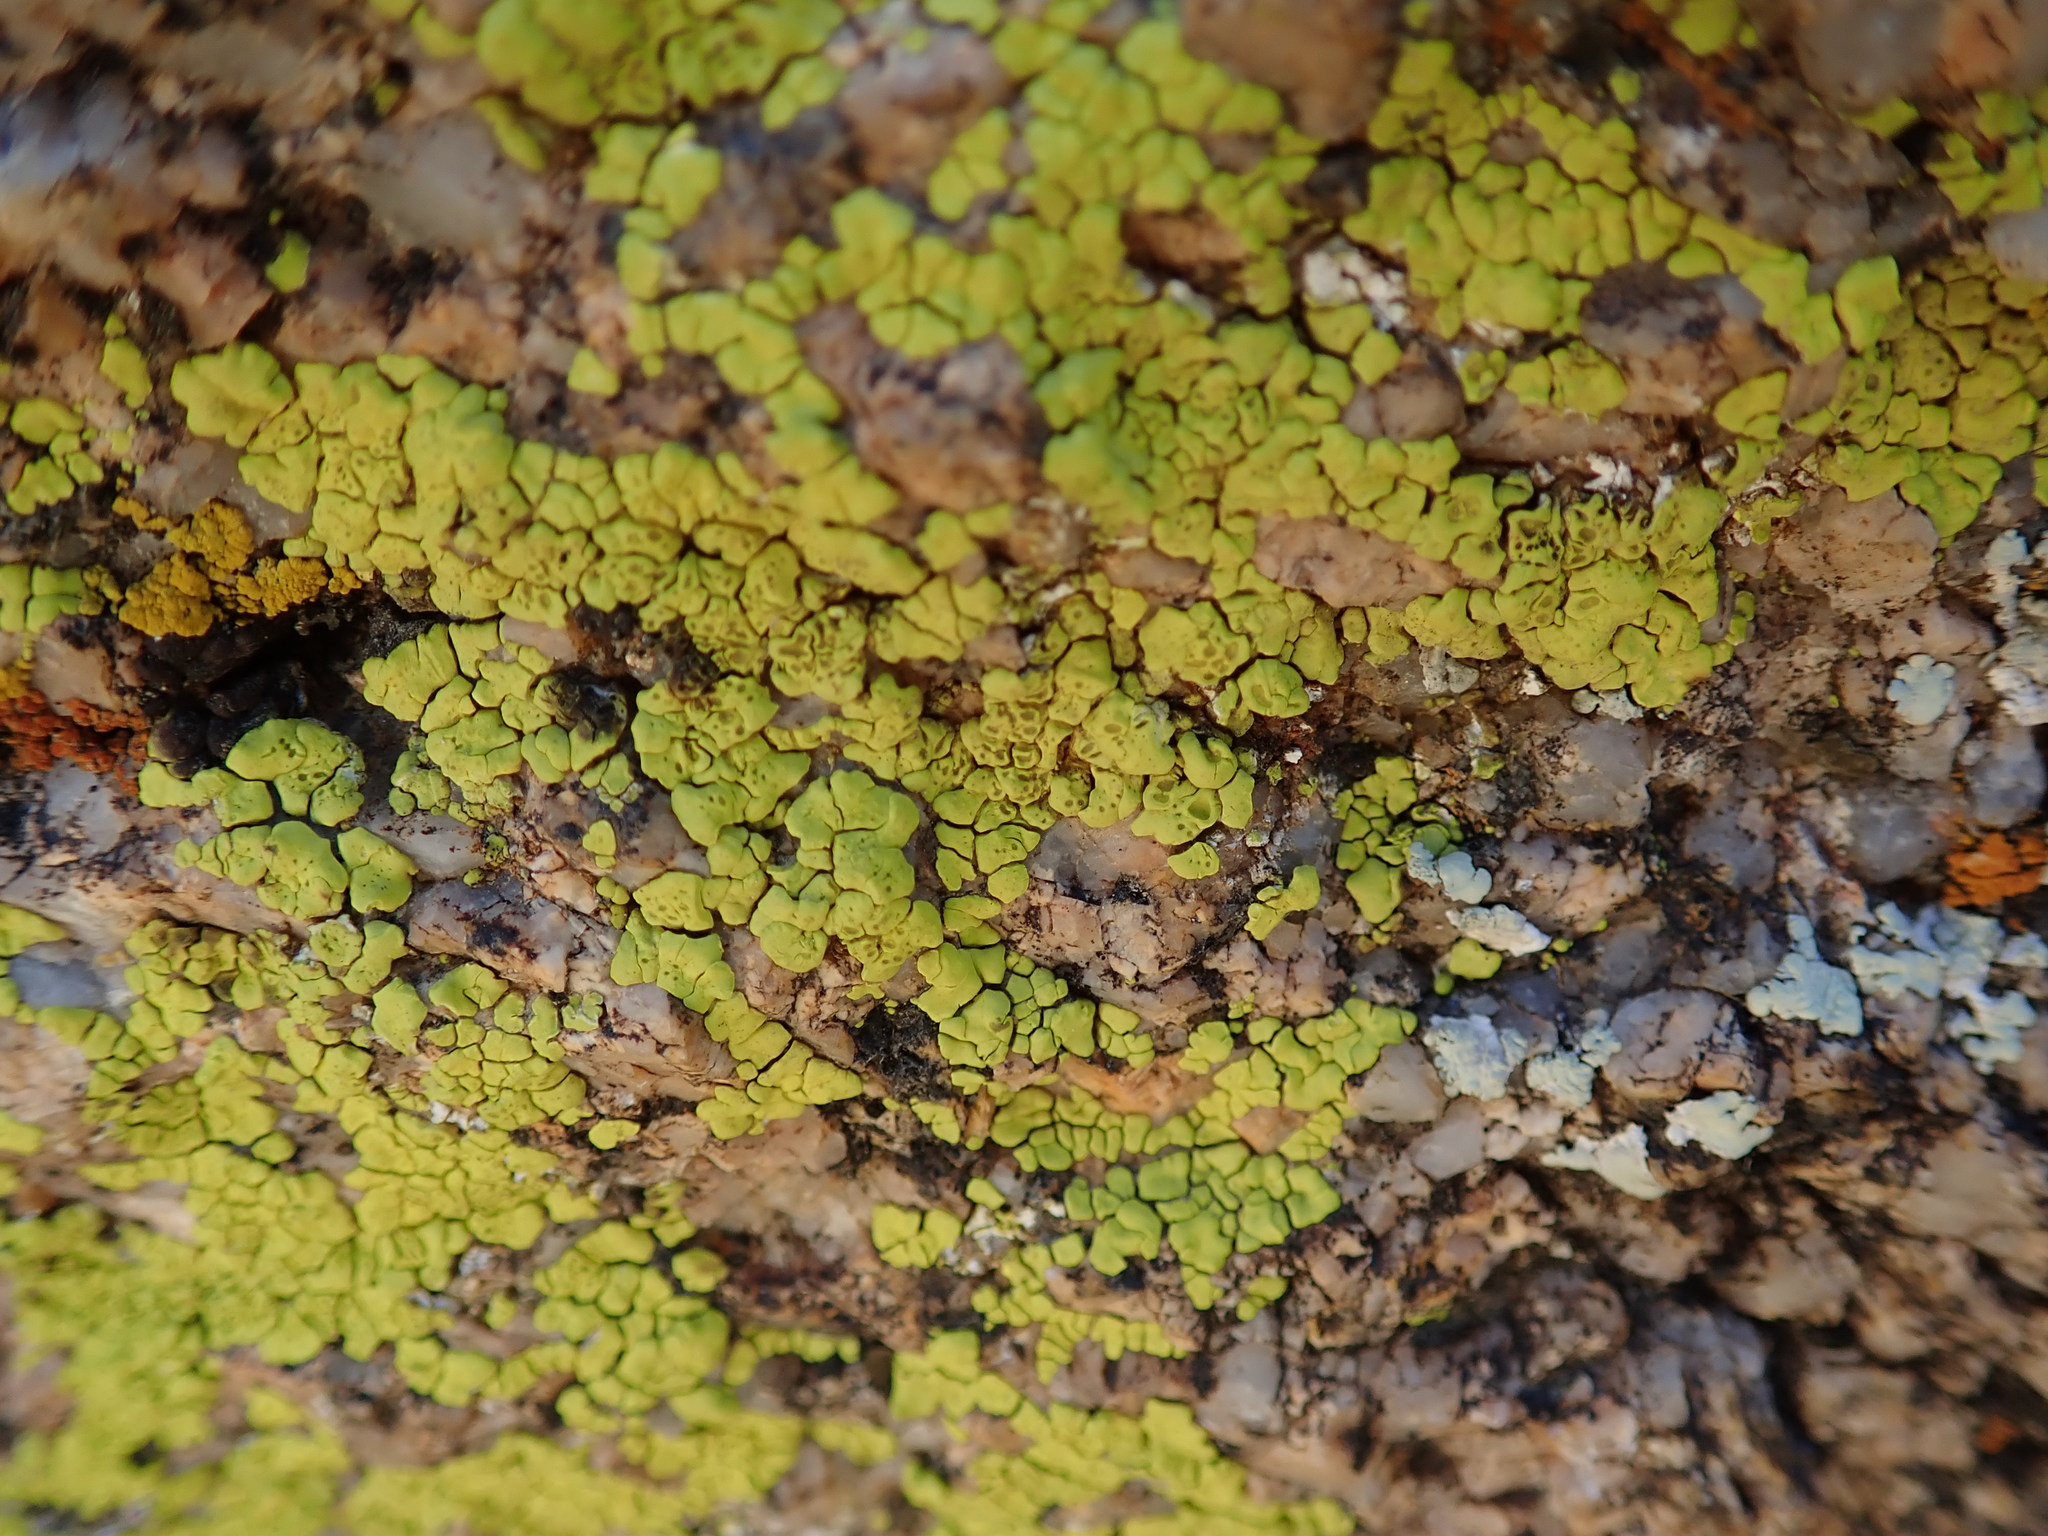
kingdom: Fungi
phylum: Ascomycota
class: Lecanoromycetes
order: Acarosporales
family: Acarosporaceae
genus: Acarospora
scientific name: Acarospora socialis
